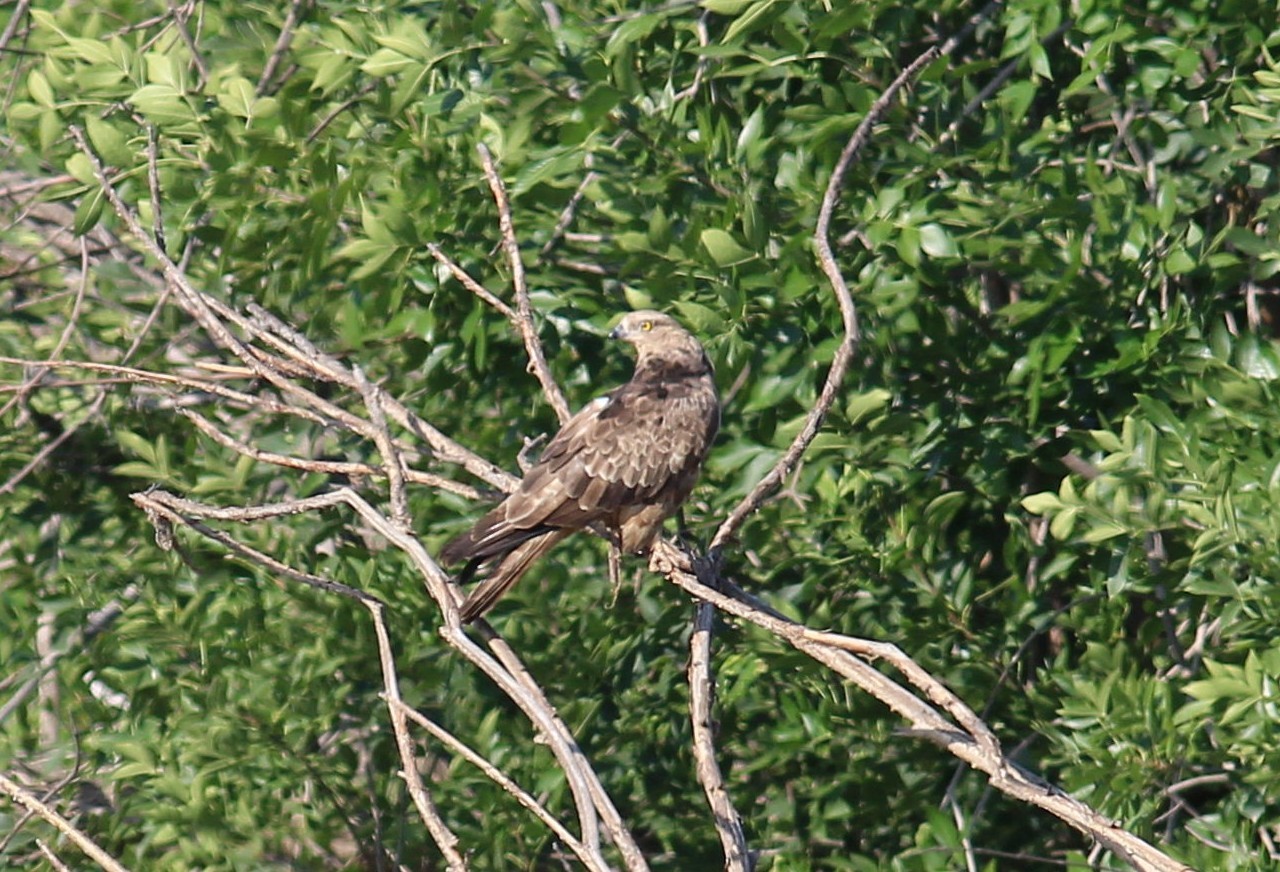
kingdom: Animalia
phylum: Chordata
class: Aves
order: Accipitriformes
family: Accipitridae
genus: Pernis
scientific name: Pernis apivorus
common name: European honey buzzard
